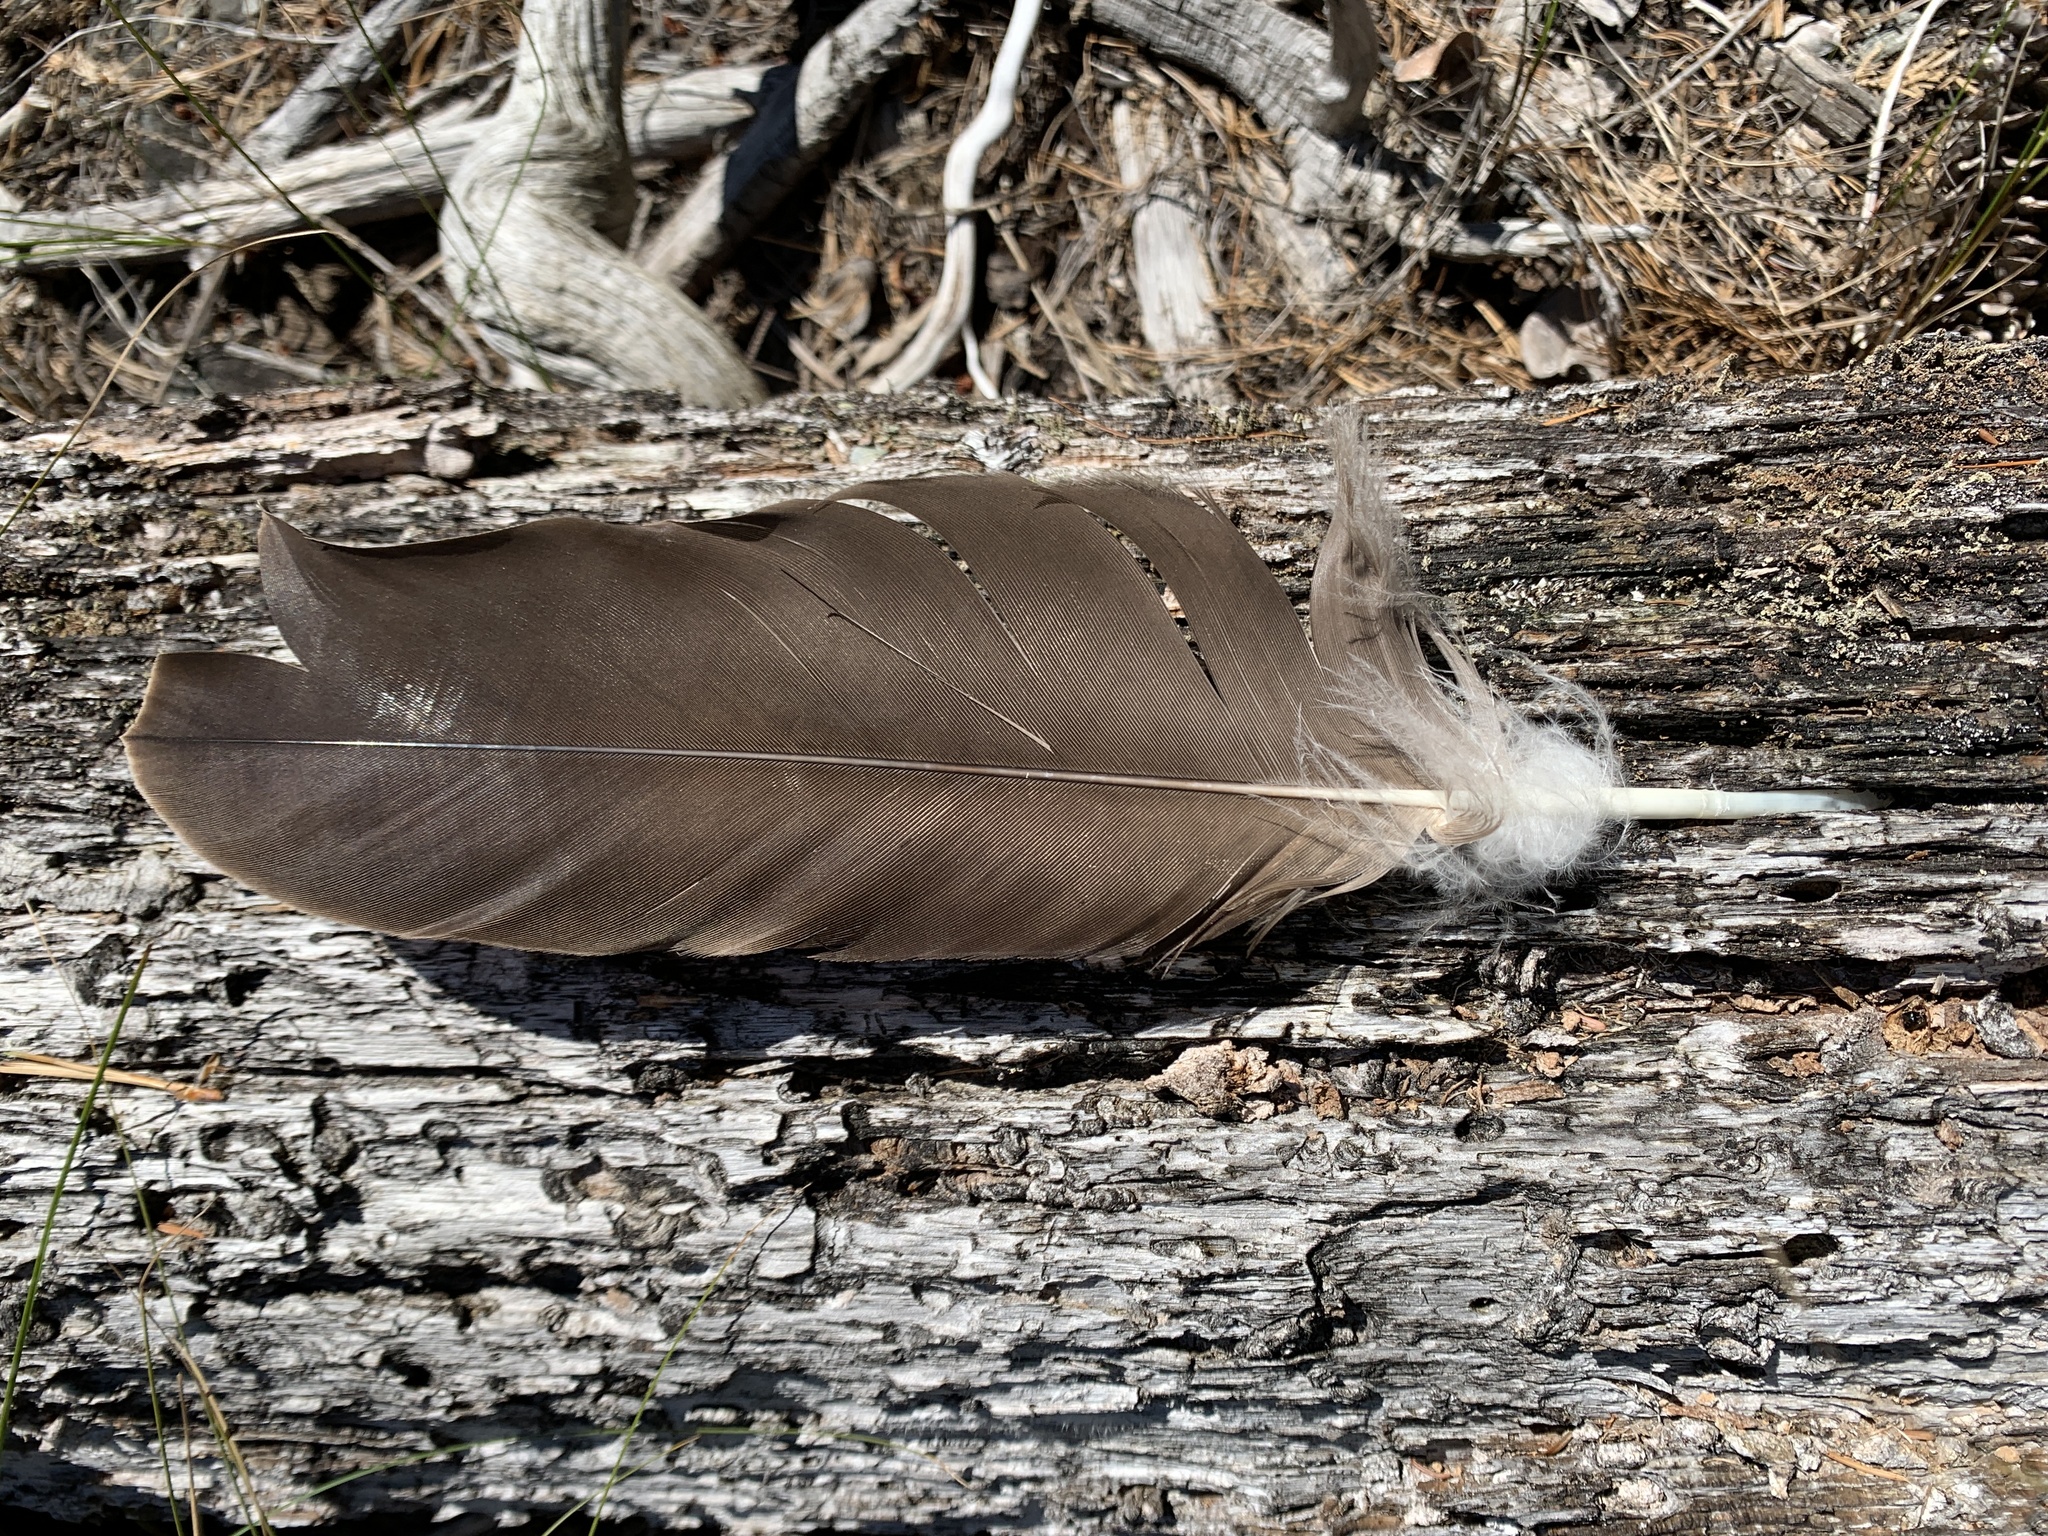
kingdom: Animalia
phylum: Chordata
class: Aves
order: Accipitriformes
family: Accipitridae
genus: Haliaeetus
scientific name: Haliaeetus leucocephalus
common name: Bald eagle
